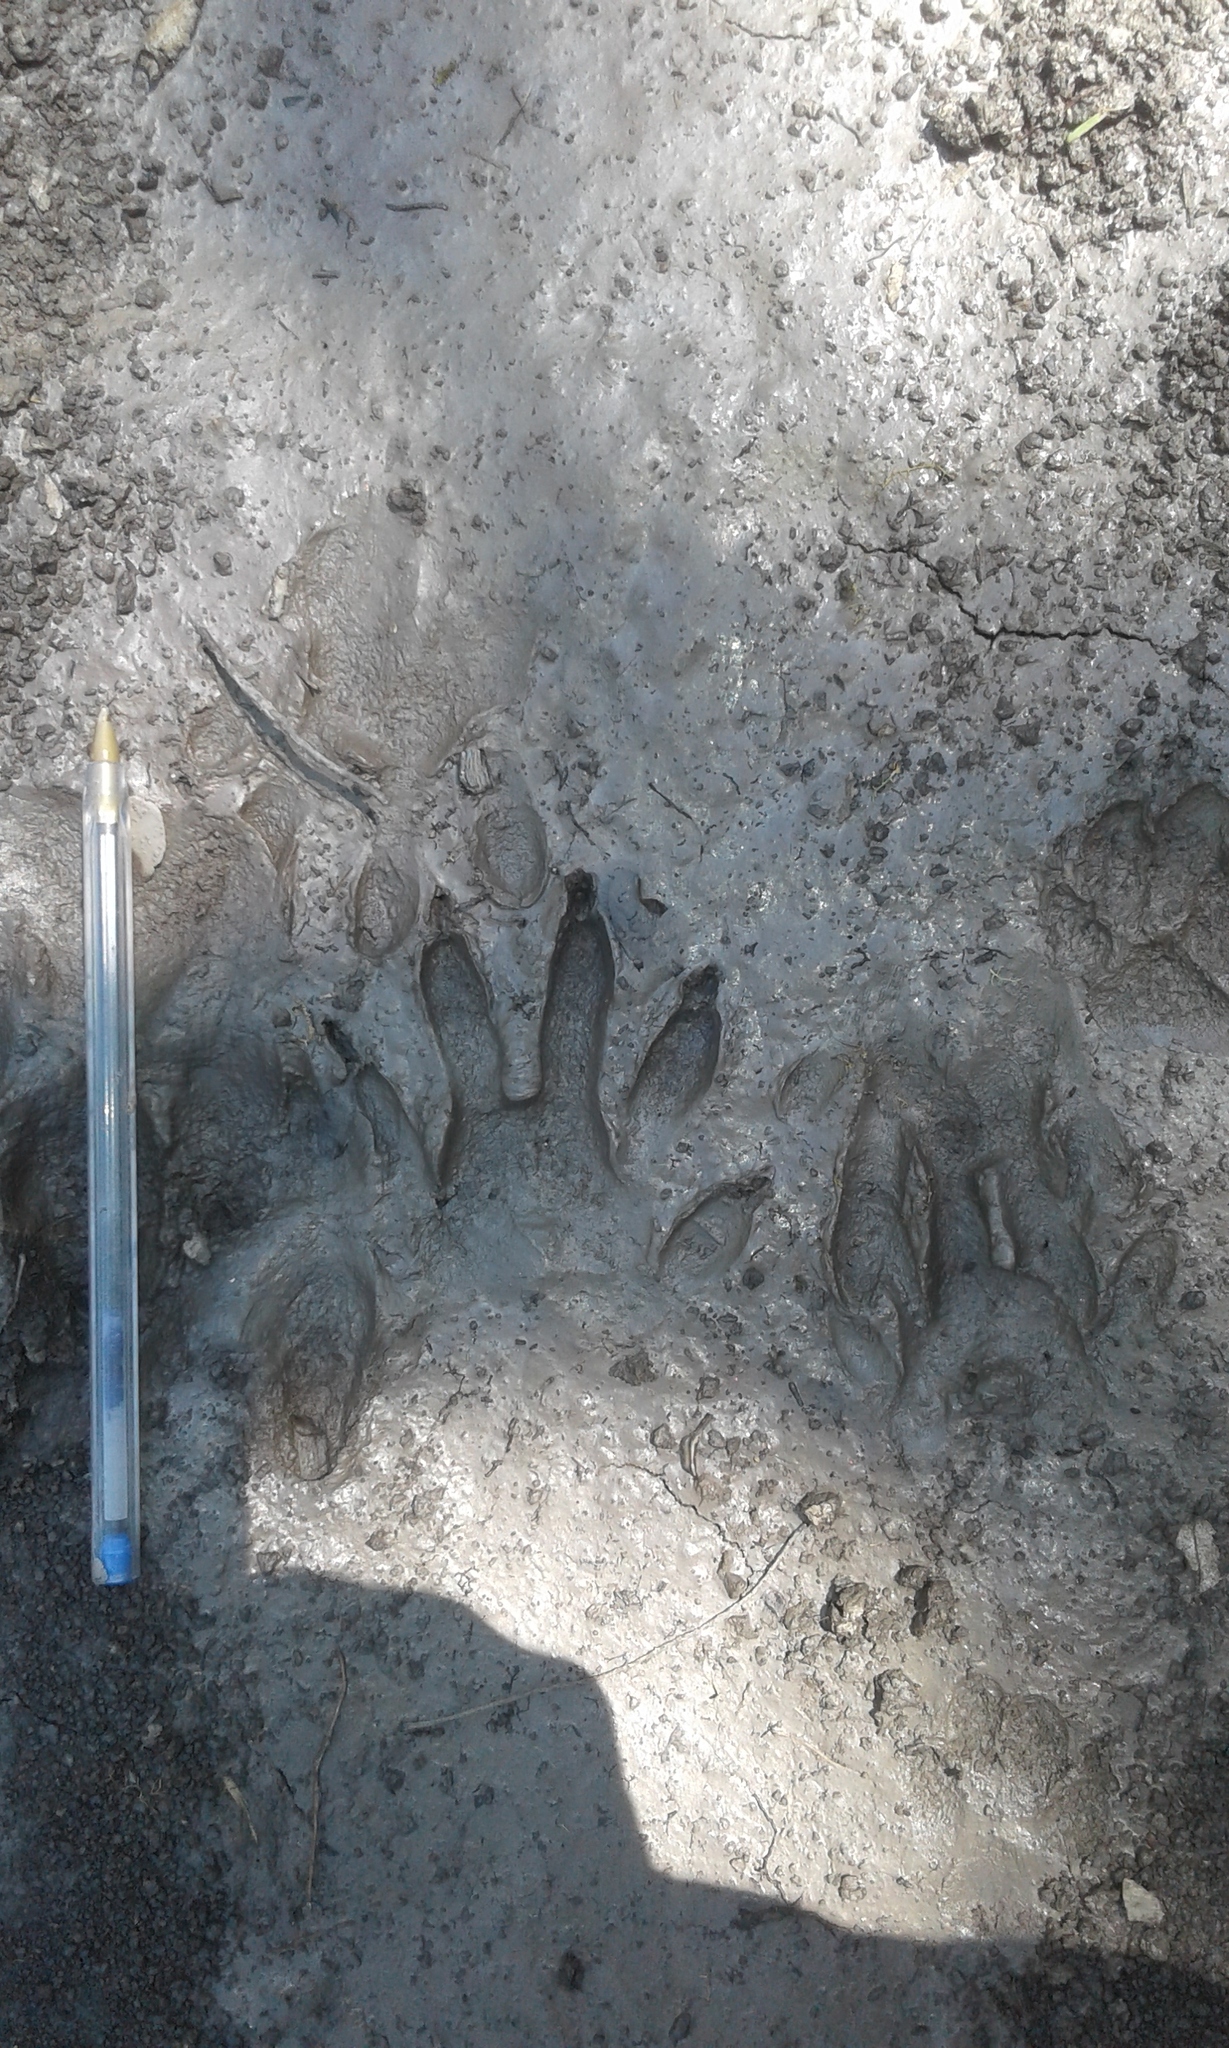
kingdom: Animalia
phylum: Chordata
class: Mammalia
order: Carnivora
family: Procyonidae
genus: Procyon
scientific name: Procyon cancrivorus
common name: Crab-eating raccoon
